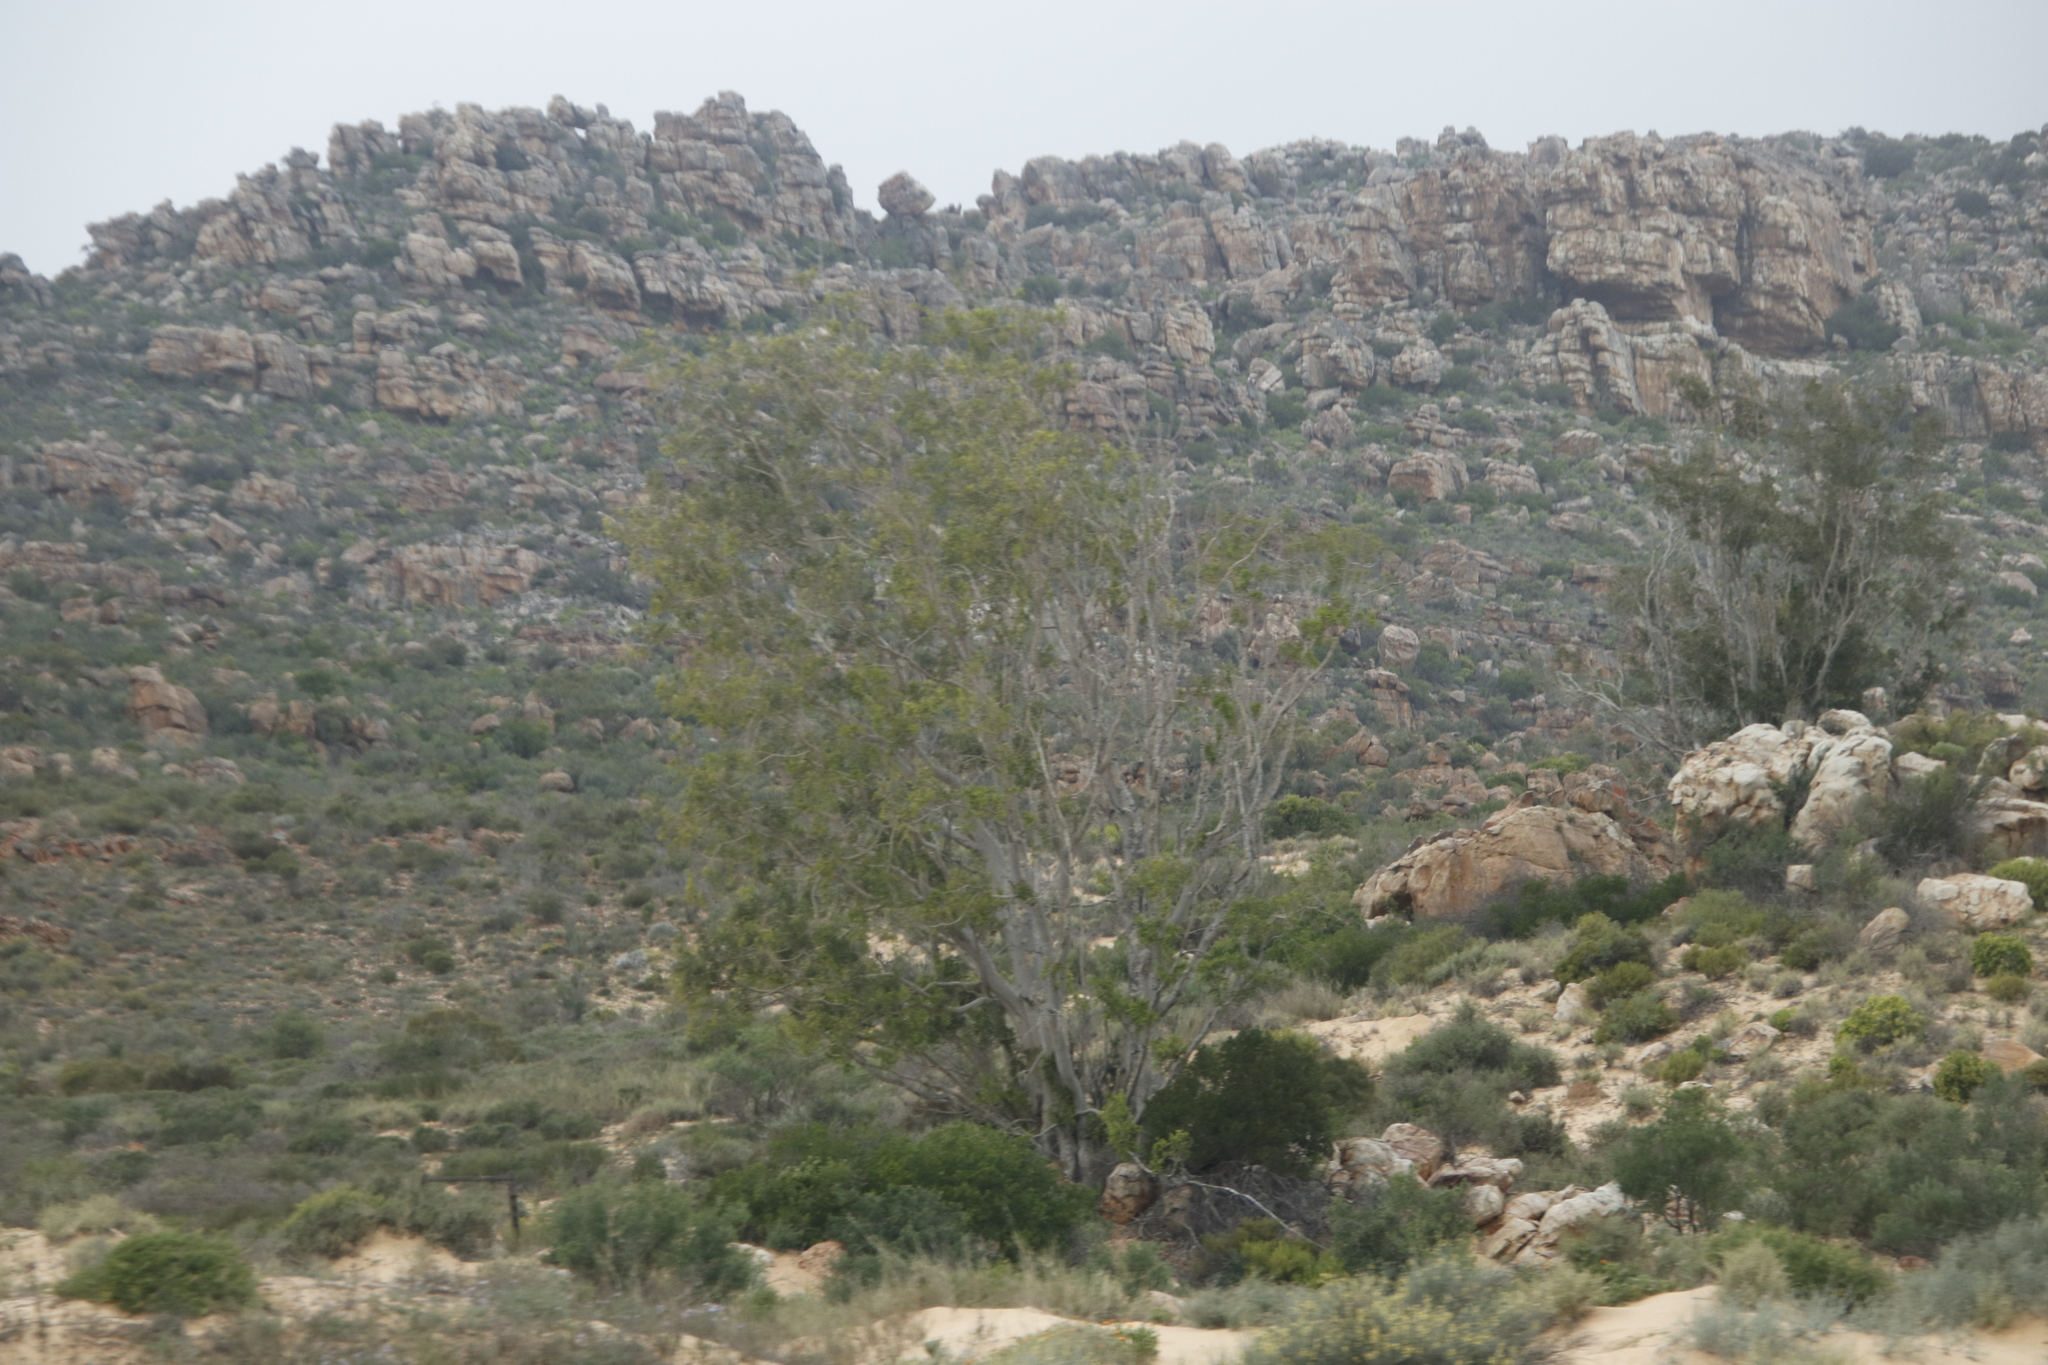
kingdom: Plantae
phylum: Tracheophyta
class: Magnoliopsida
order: Rosales
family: Moraceae
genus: Ficus
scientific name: Ficus cordata
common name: Namaqua rock fig
